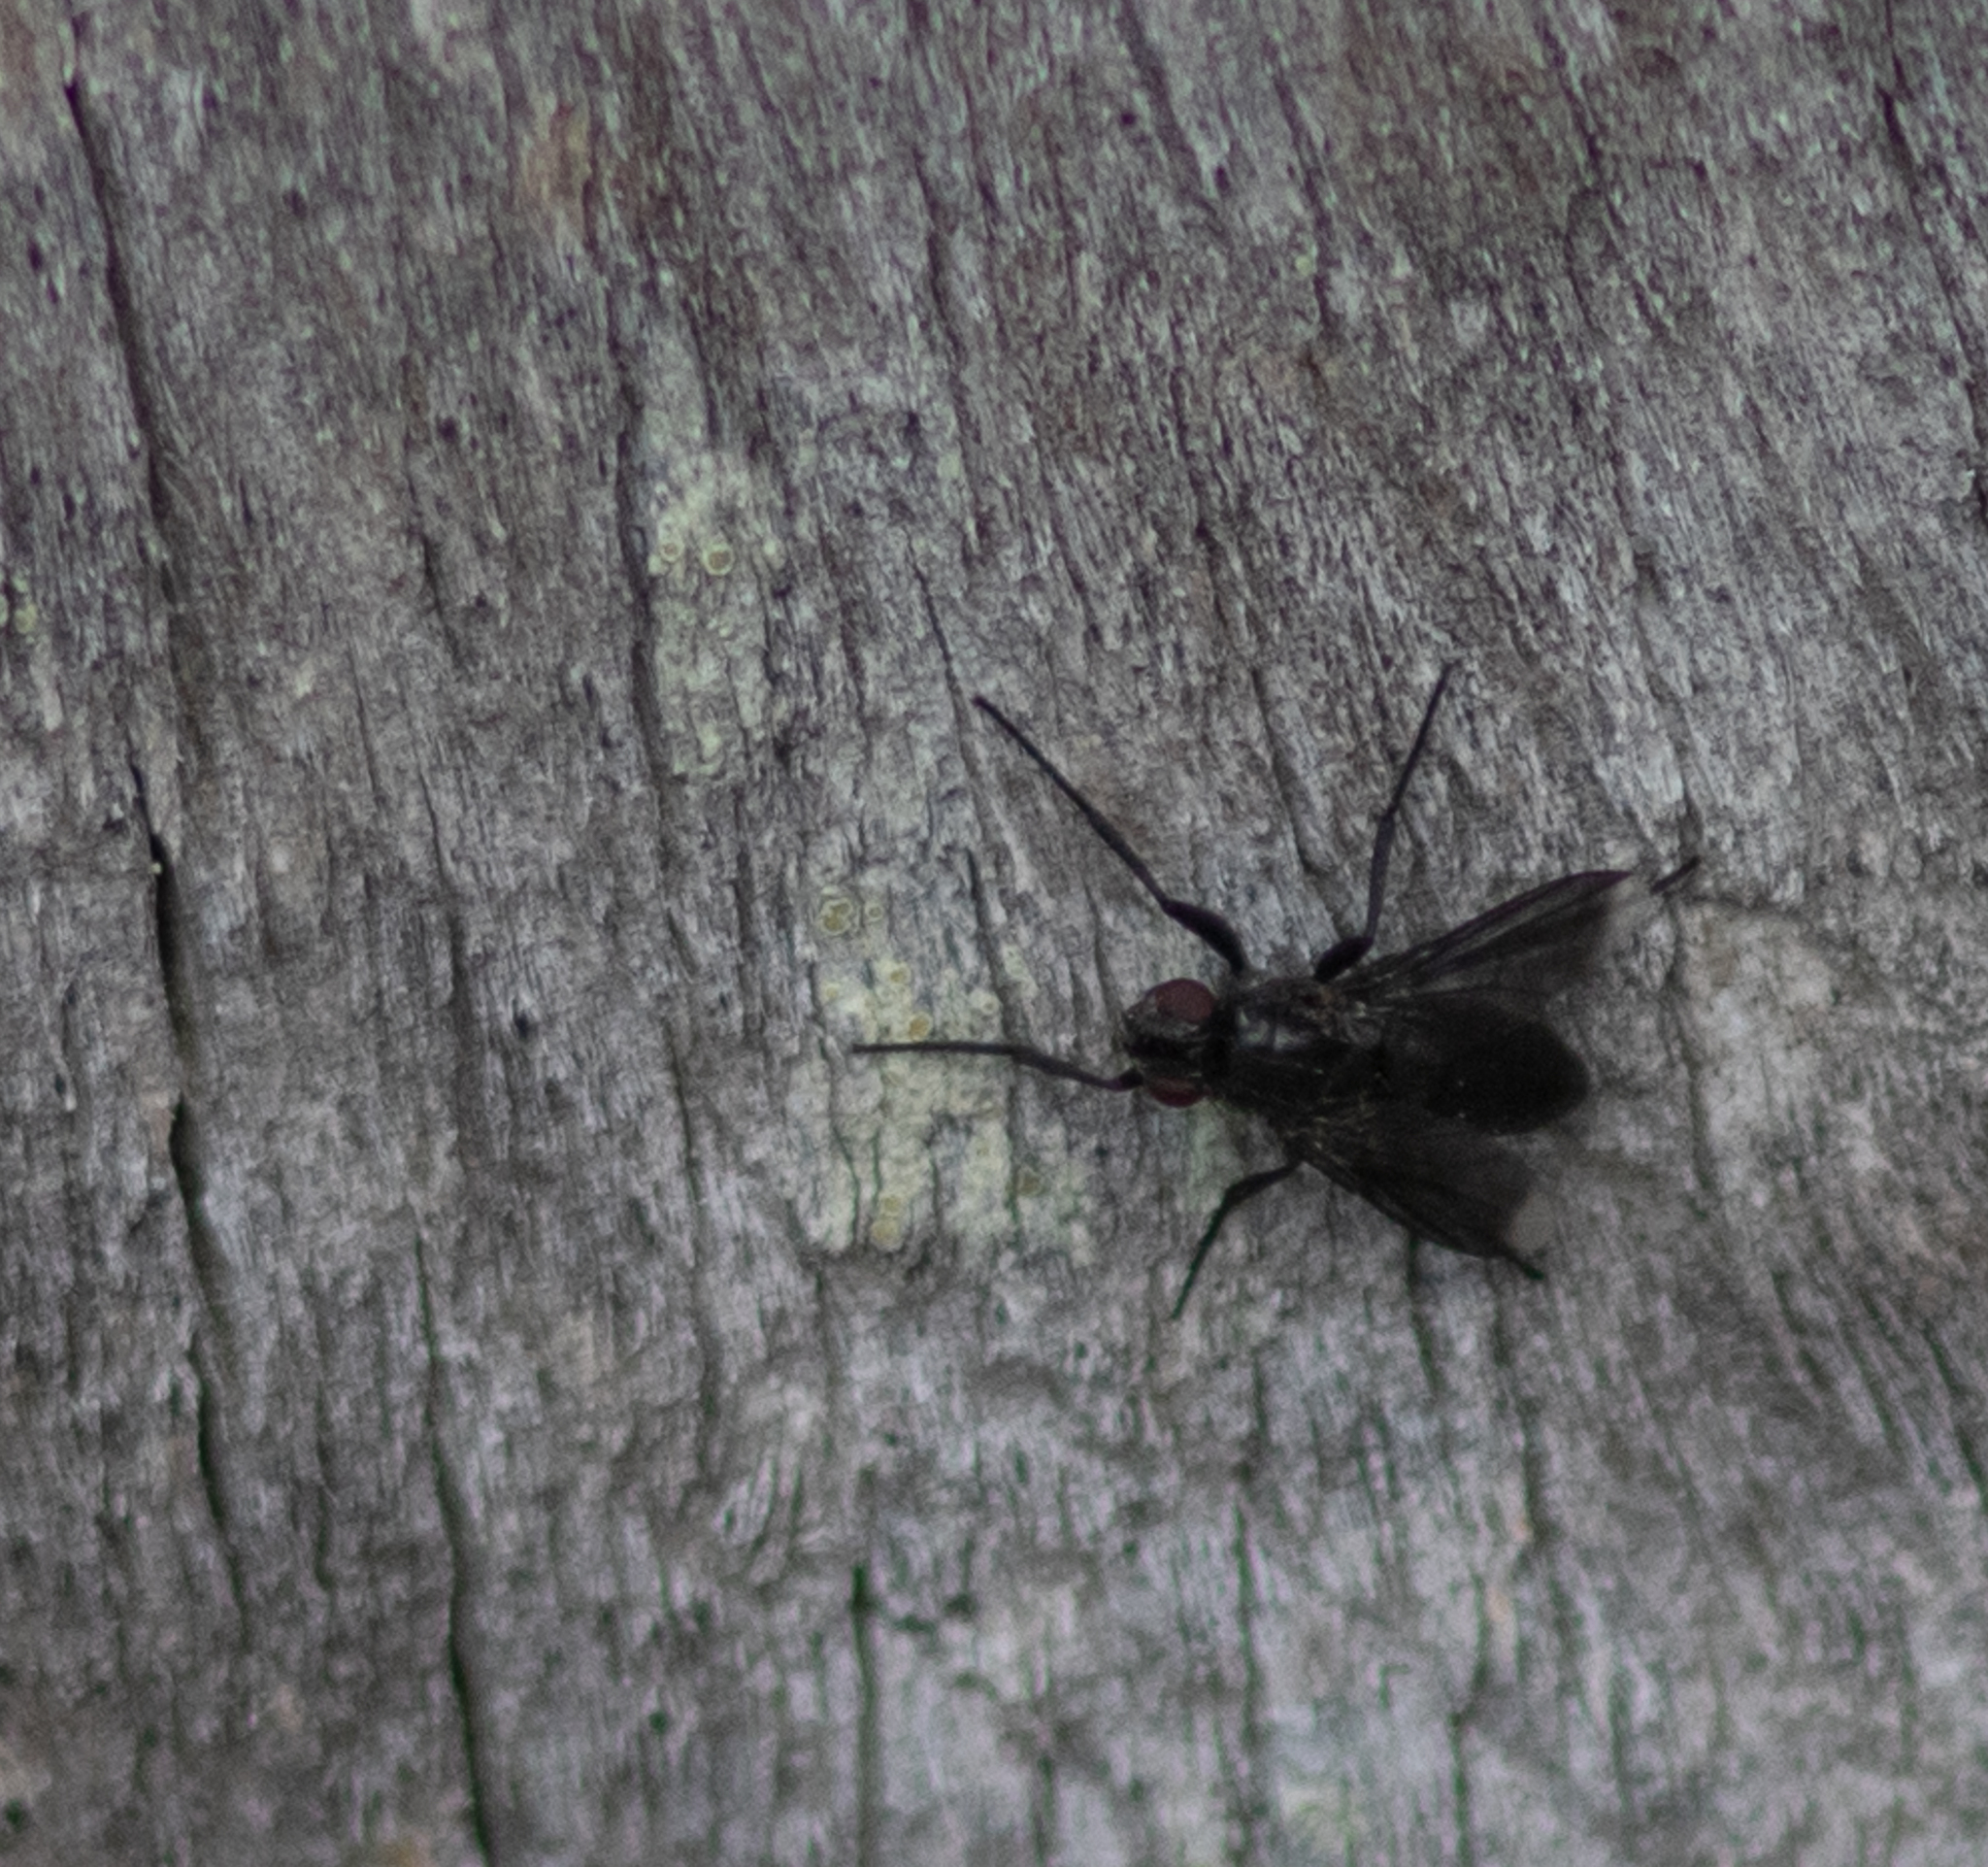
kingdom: Animalia
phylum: Arthropoda
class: Insecta
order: Diptera
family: Calliphoridae
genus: Melanophora
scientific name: Melanophora roralis
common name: Smoky-winged woodlouse-fly
